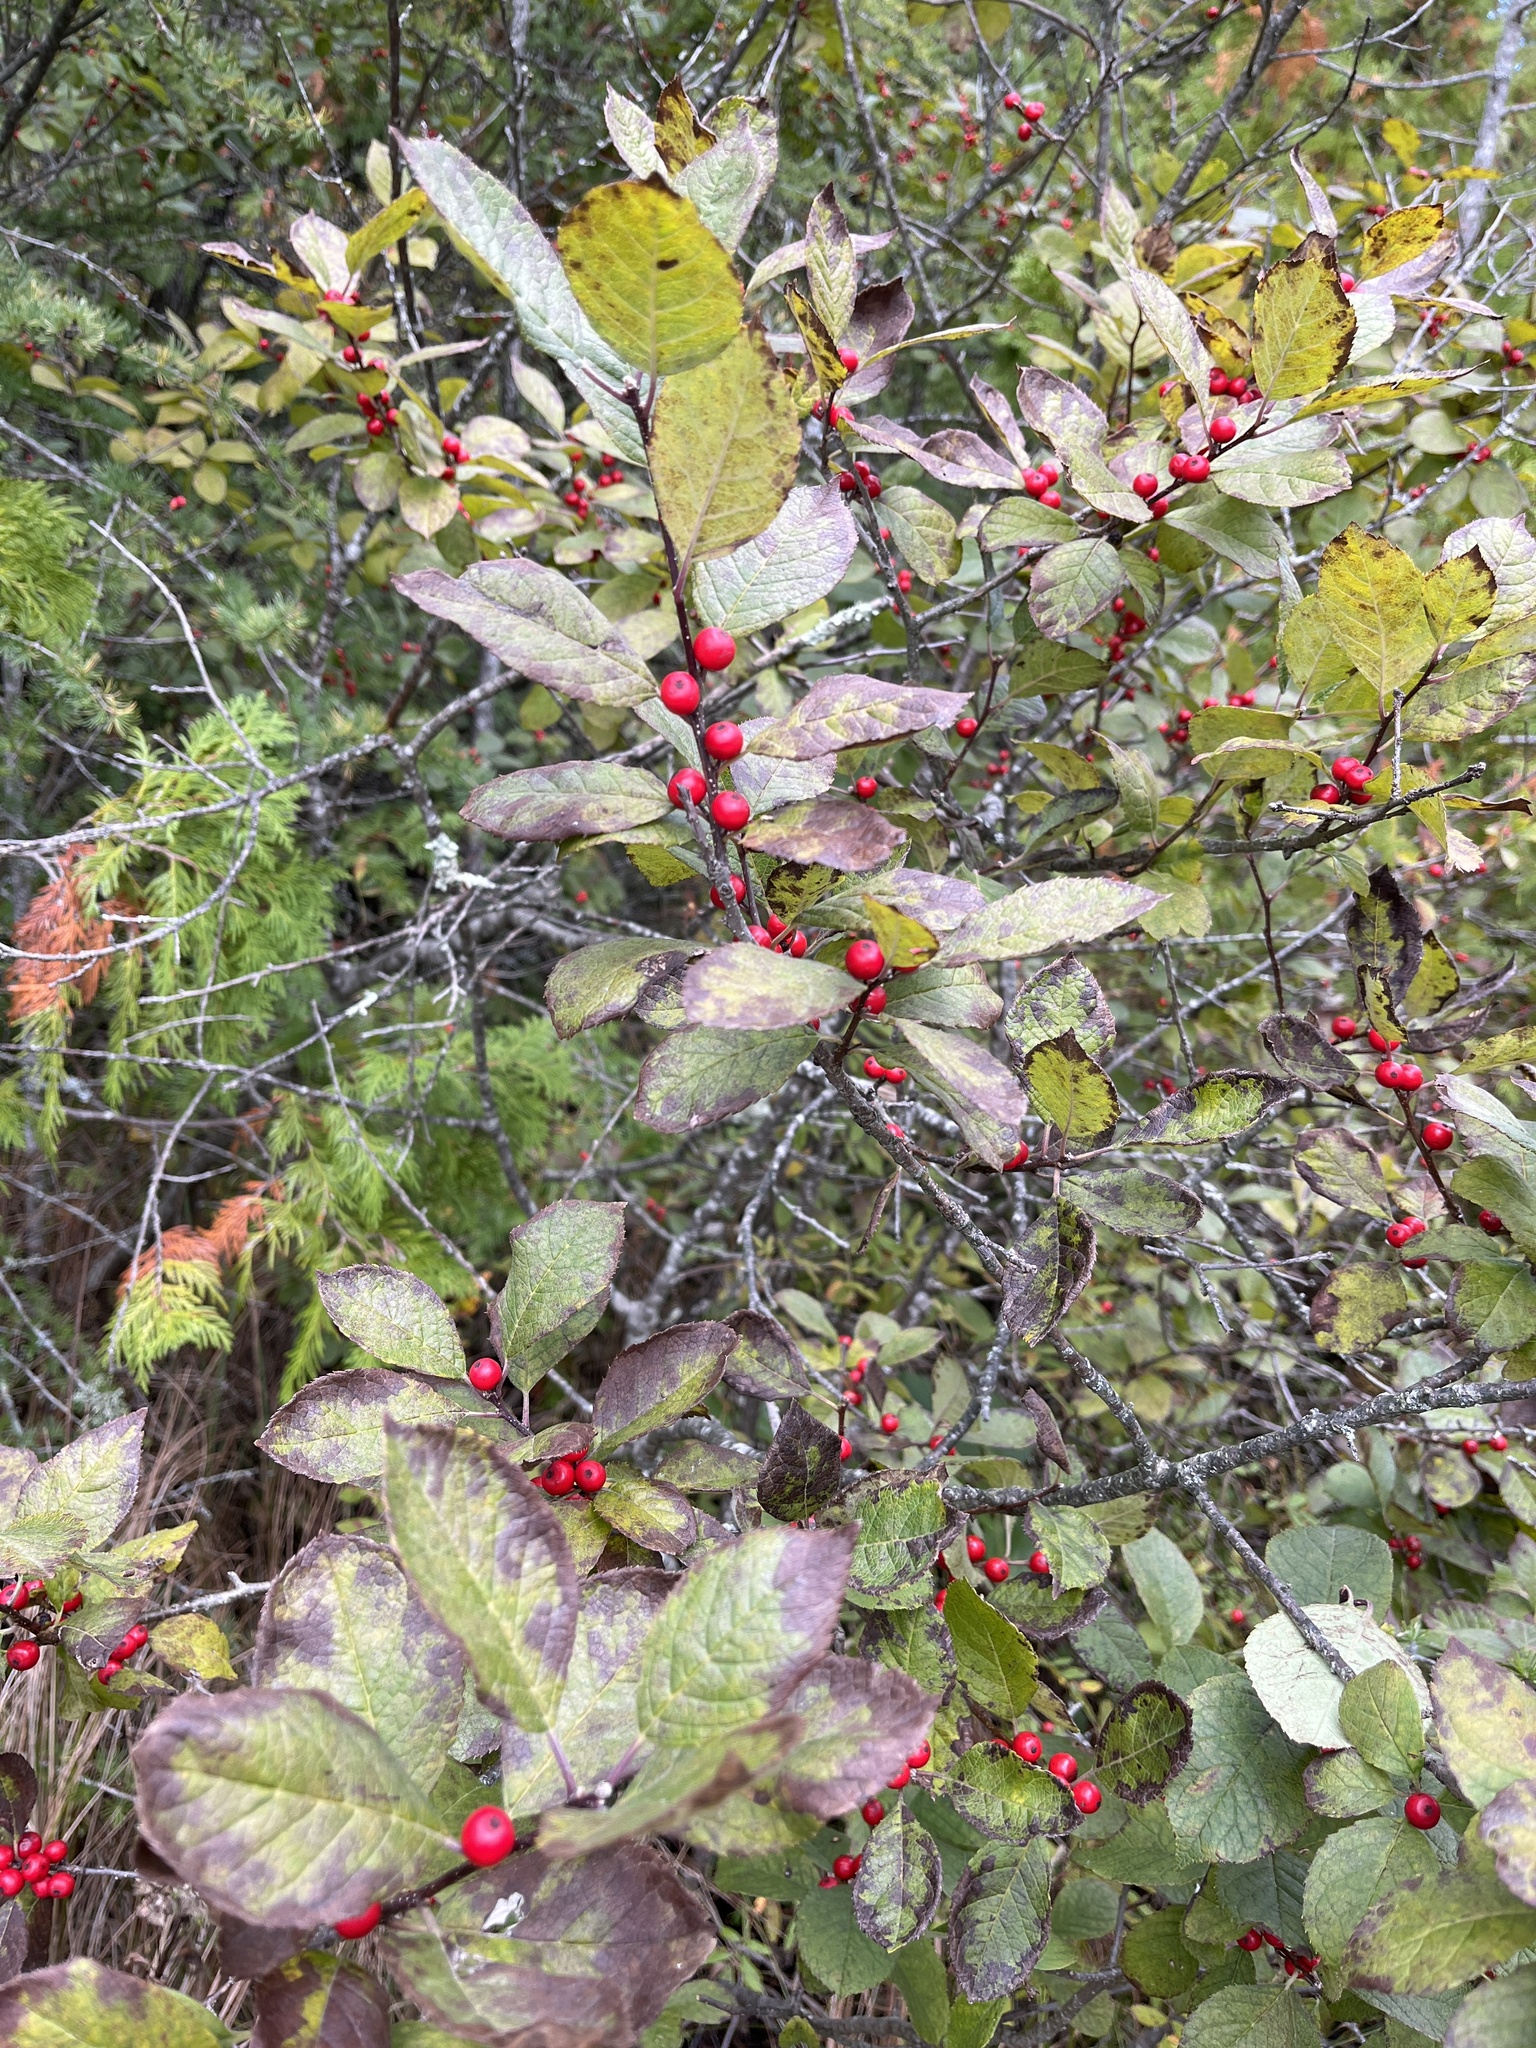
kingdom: Plantae
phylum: Tracheophyta
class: Magnoliopsida
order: Aquifoliales
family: Aquifoliaceae
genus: Ilex
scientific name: Ilex verticillata
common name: Virginia winterberry
